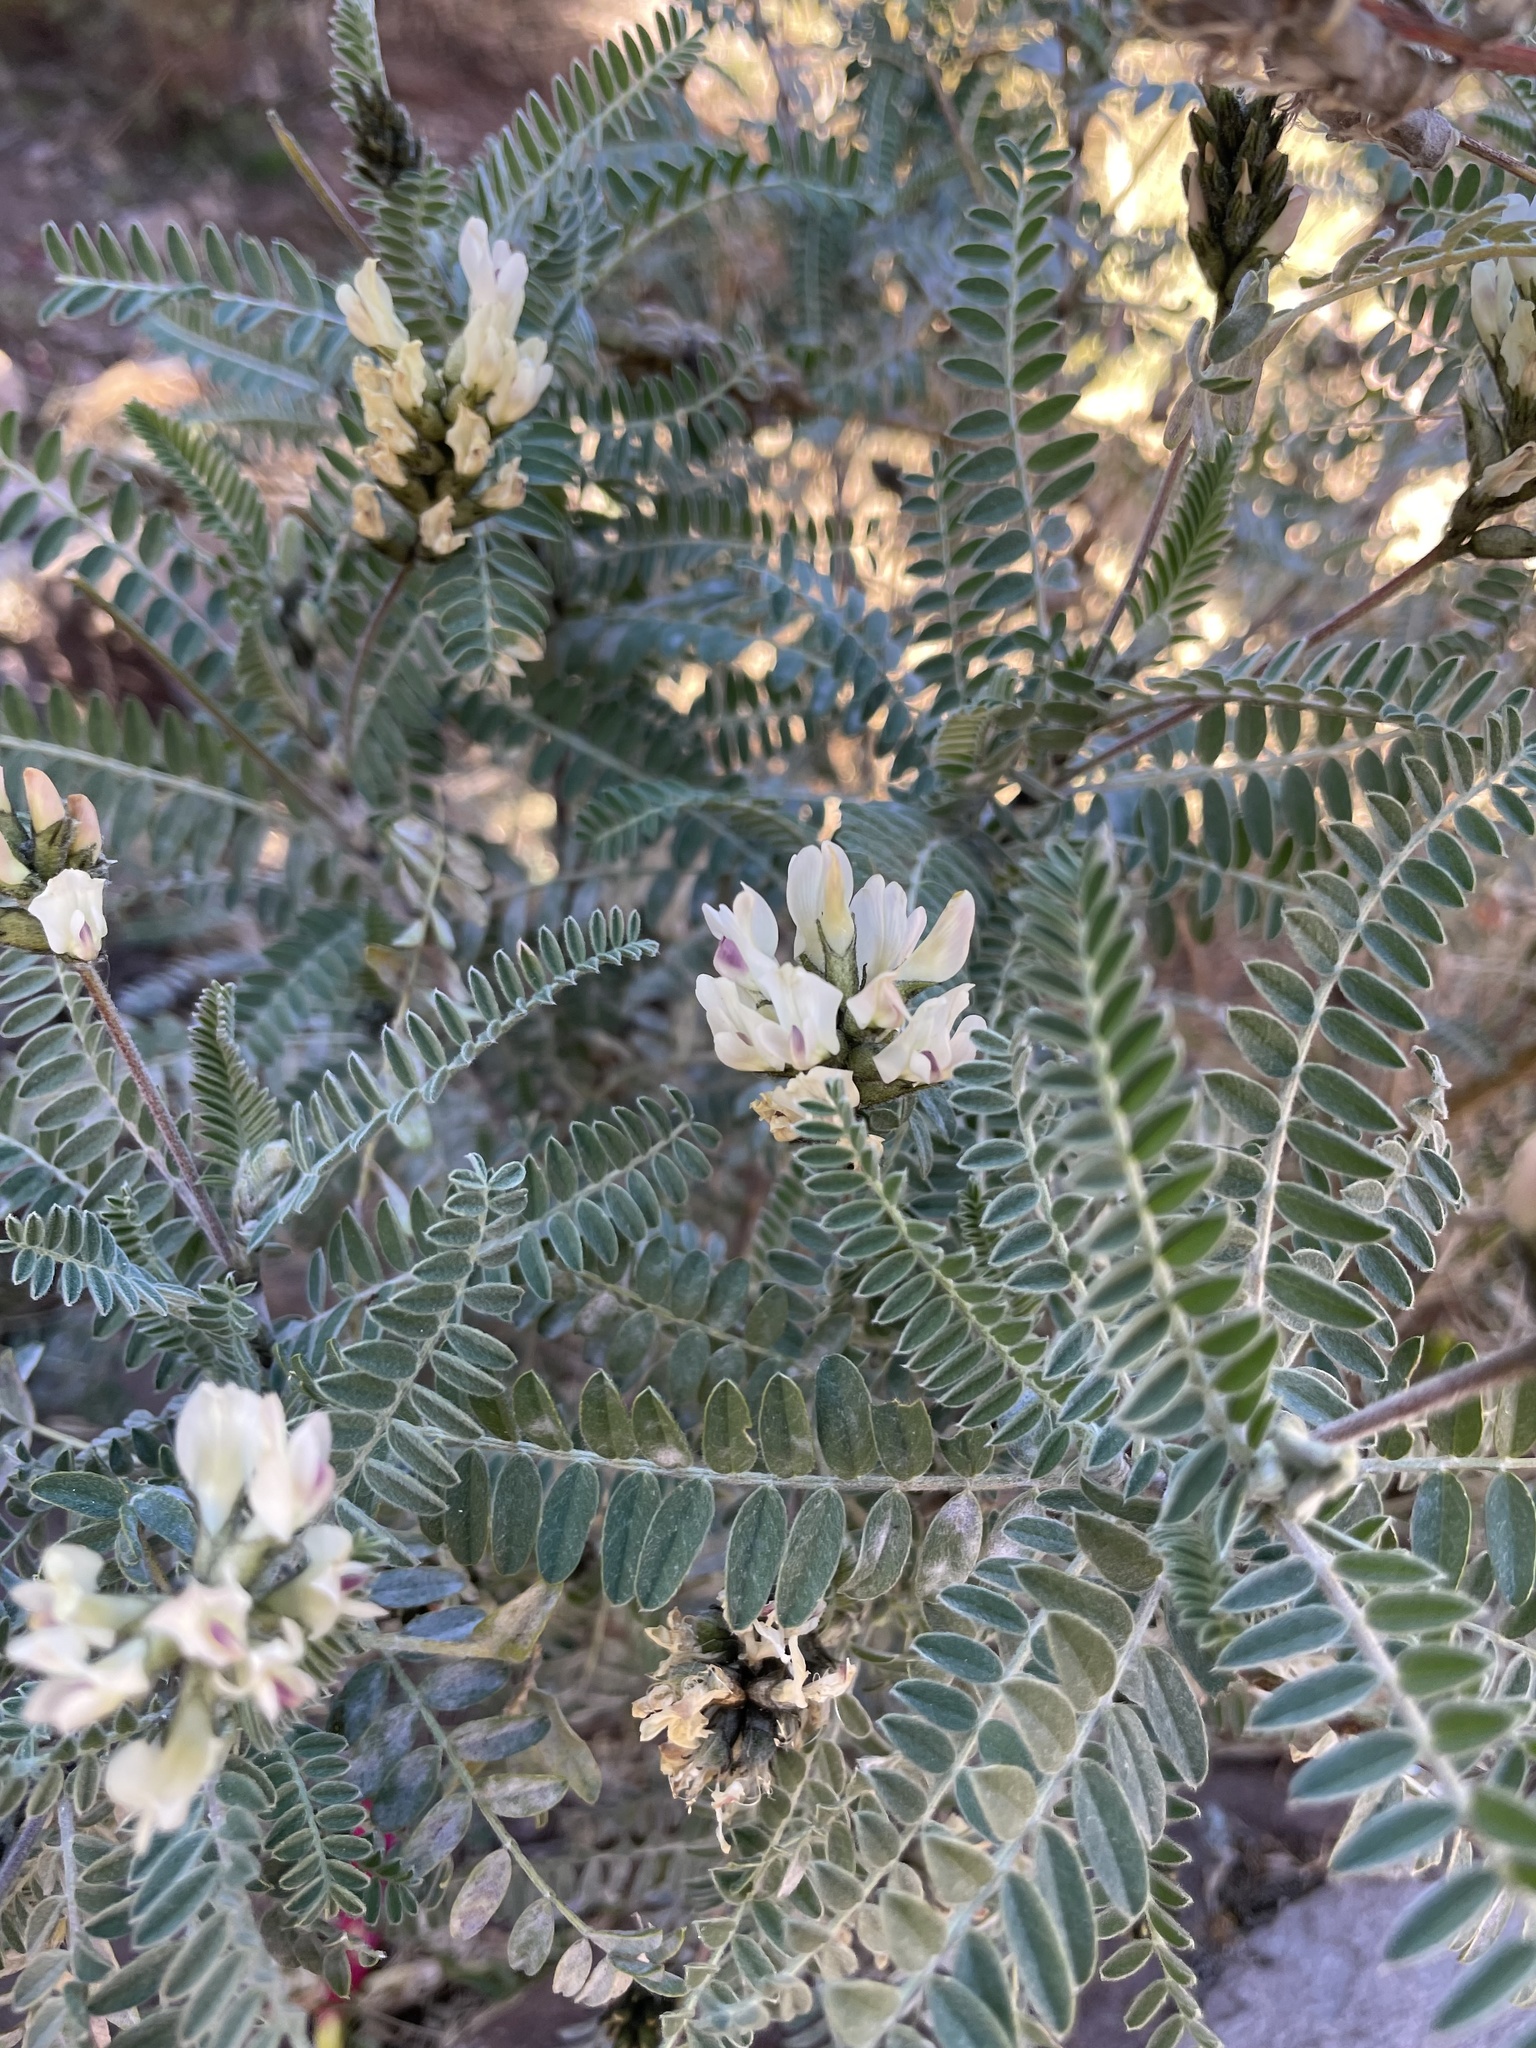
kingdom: Plantae
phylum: Tracheophyta
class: Magnoliopsida
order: Fabales
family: Fabaceae
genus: Astragalus
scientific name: Astragalus garbancillo
